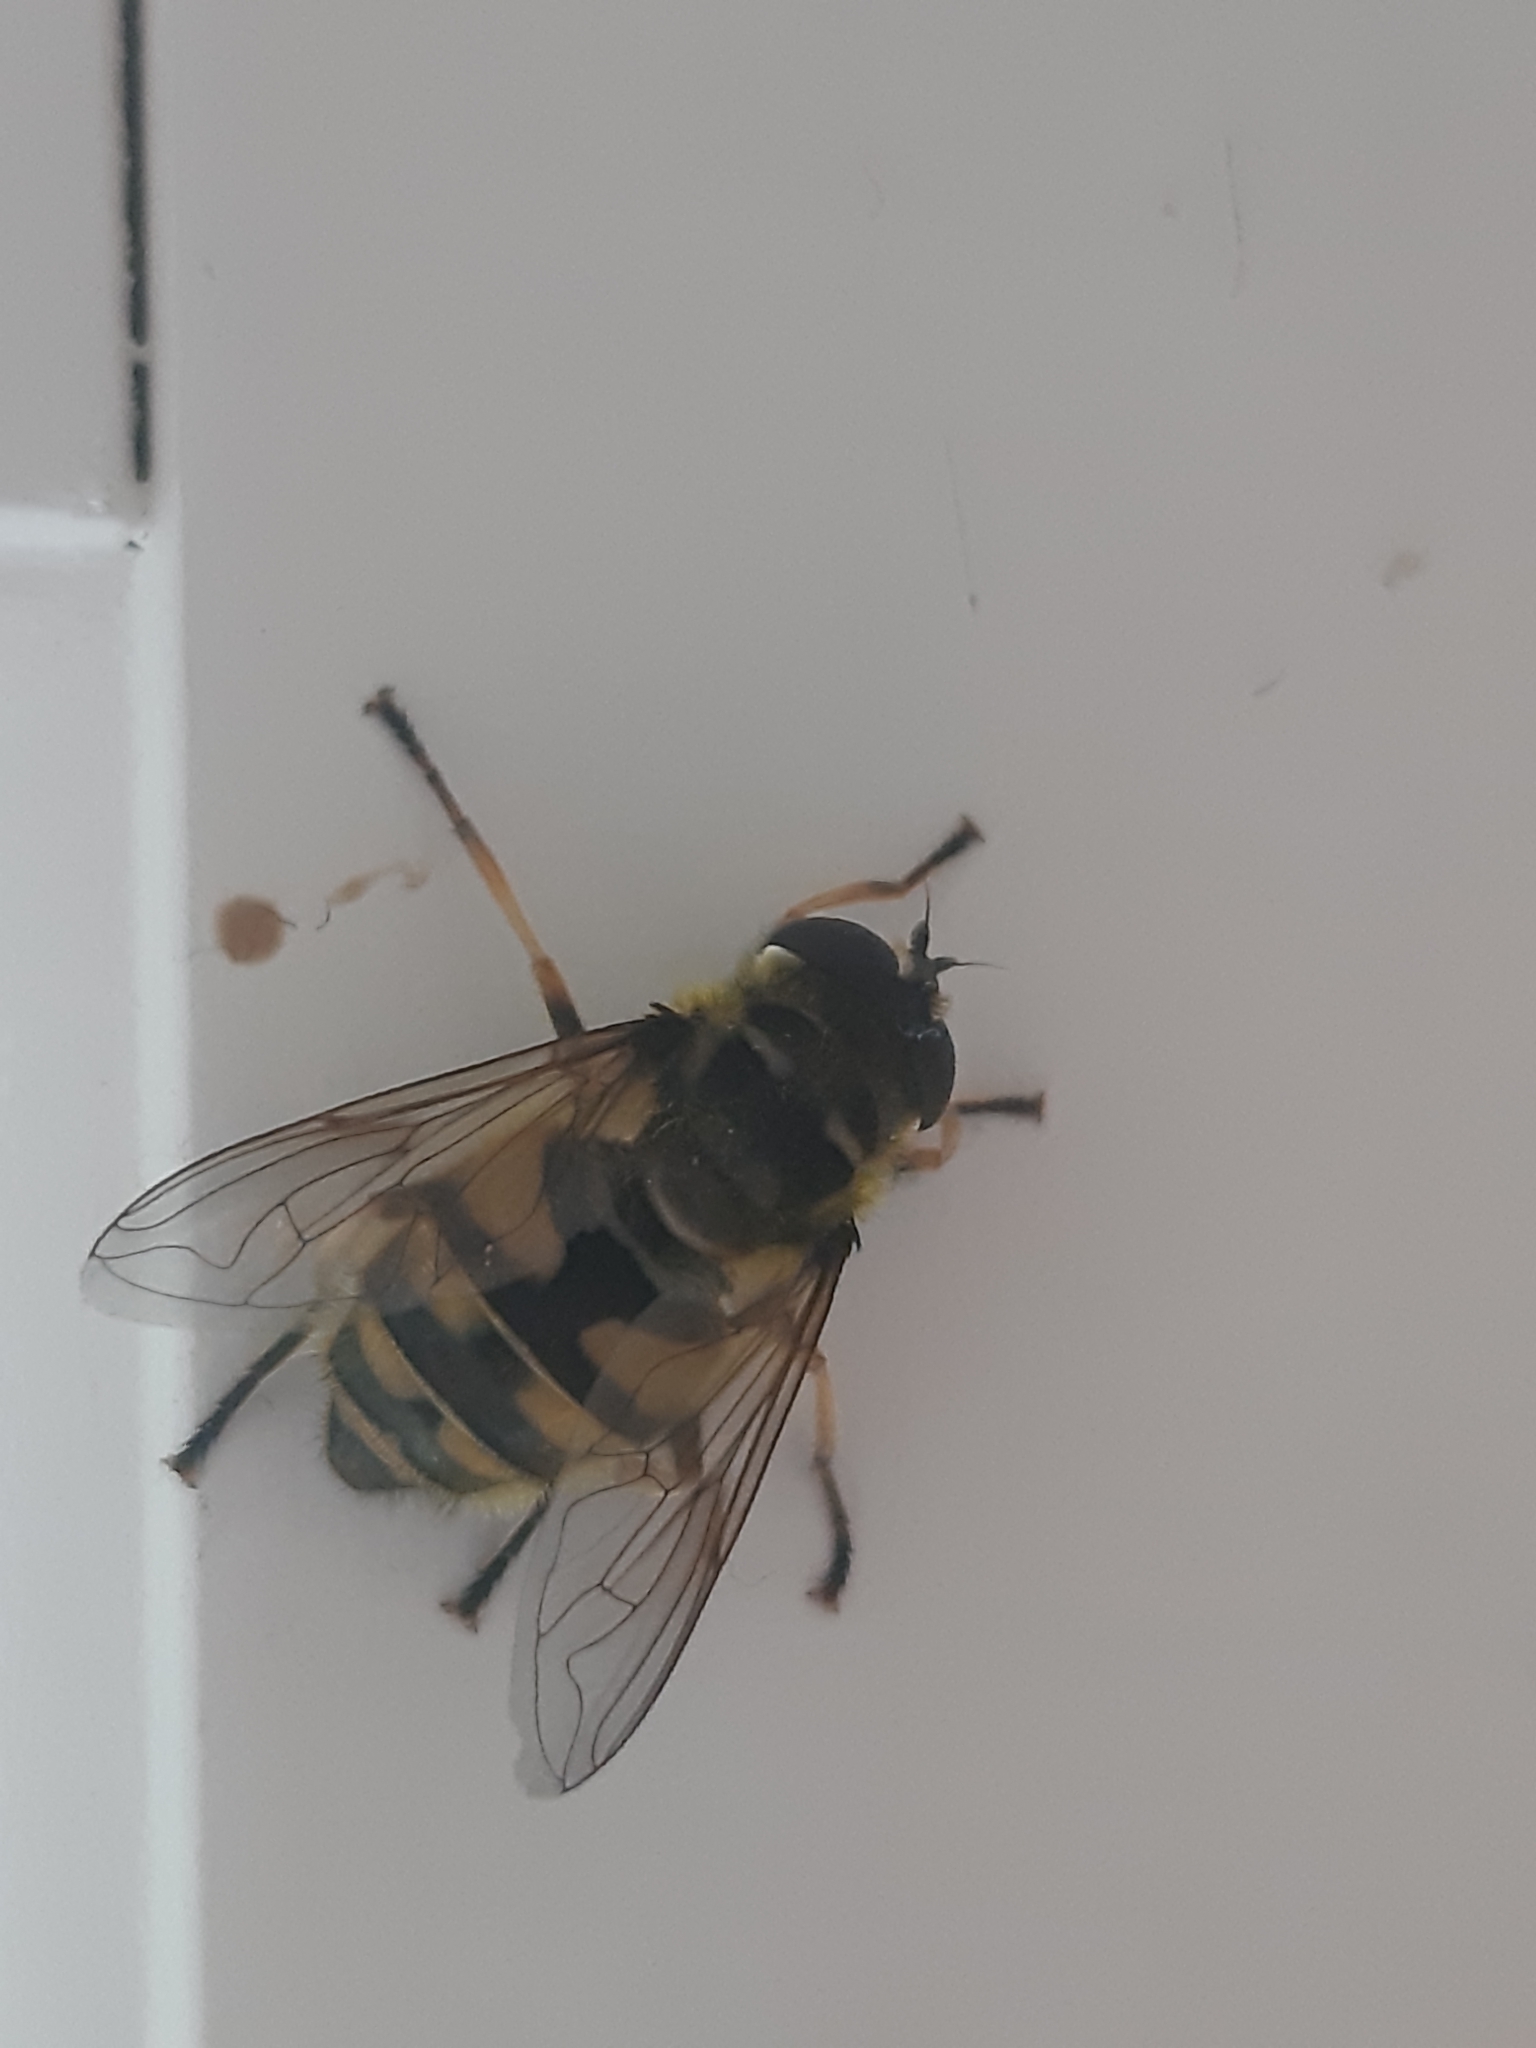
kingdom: Animalia
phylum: Arthropoda
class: Insecta
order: Diptera
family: Syrphidae
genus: Myathropa
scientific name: Myathropa florea
